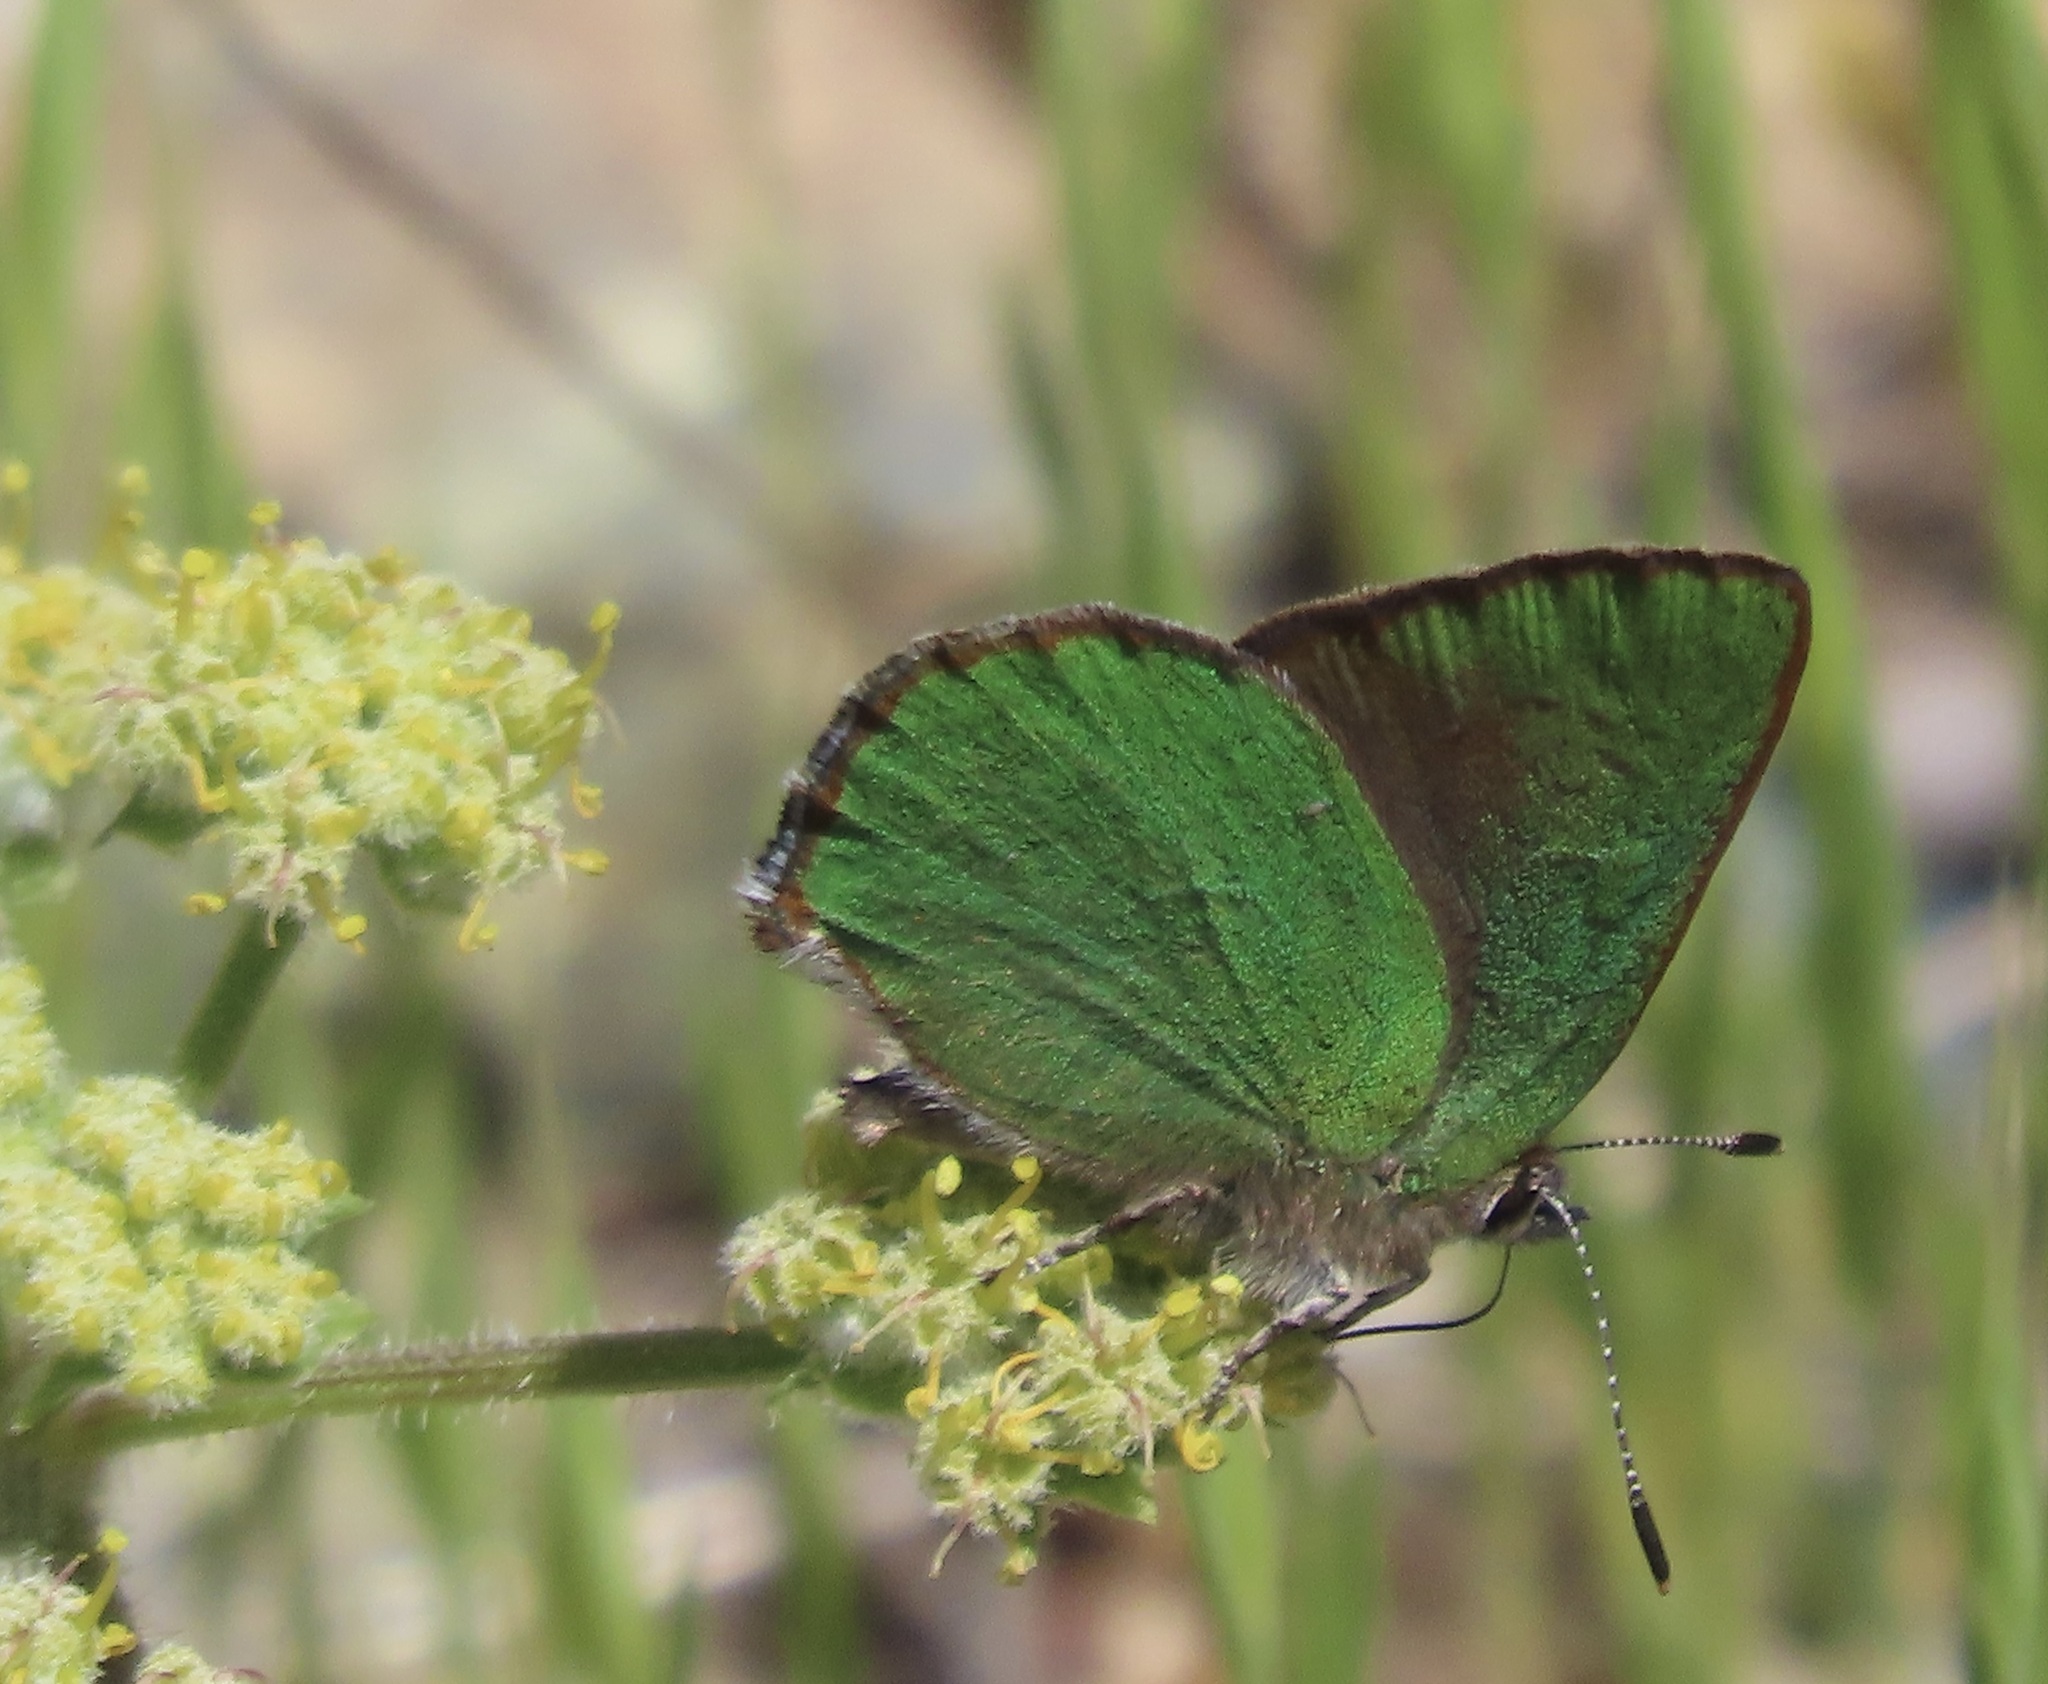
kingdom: Animalia
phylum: Arthropoda
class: Insecta
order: Lepidoptera
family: Lycaenidae
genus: Callophrys
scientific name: Callophrys dumetorum
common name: Bramble hairstreak
